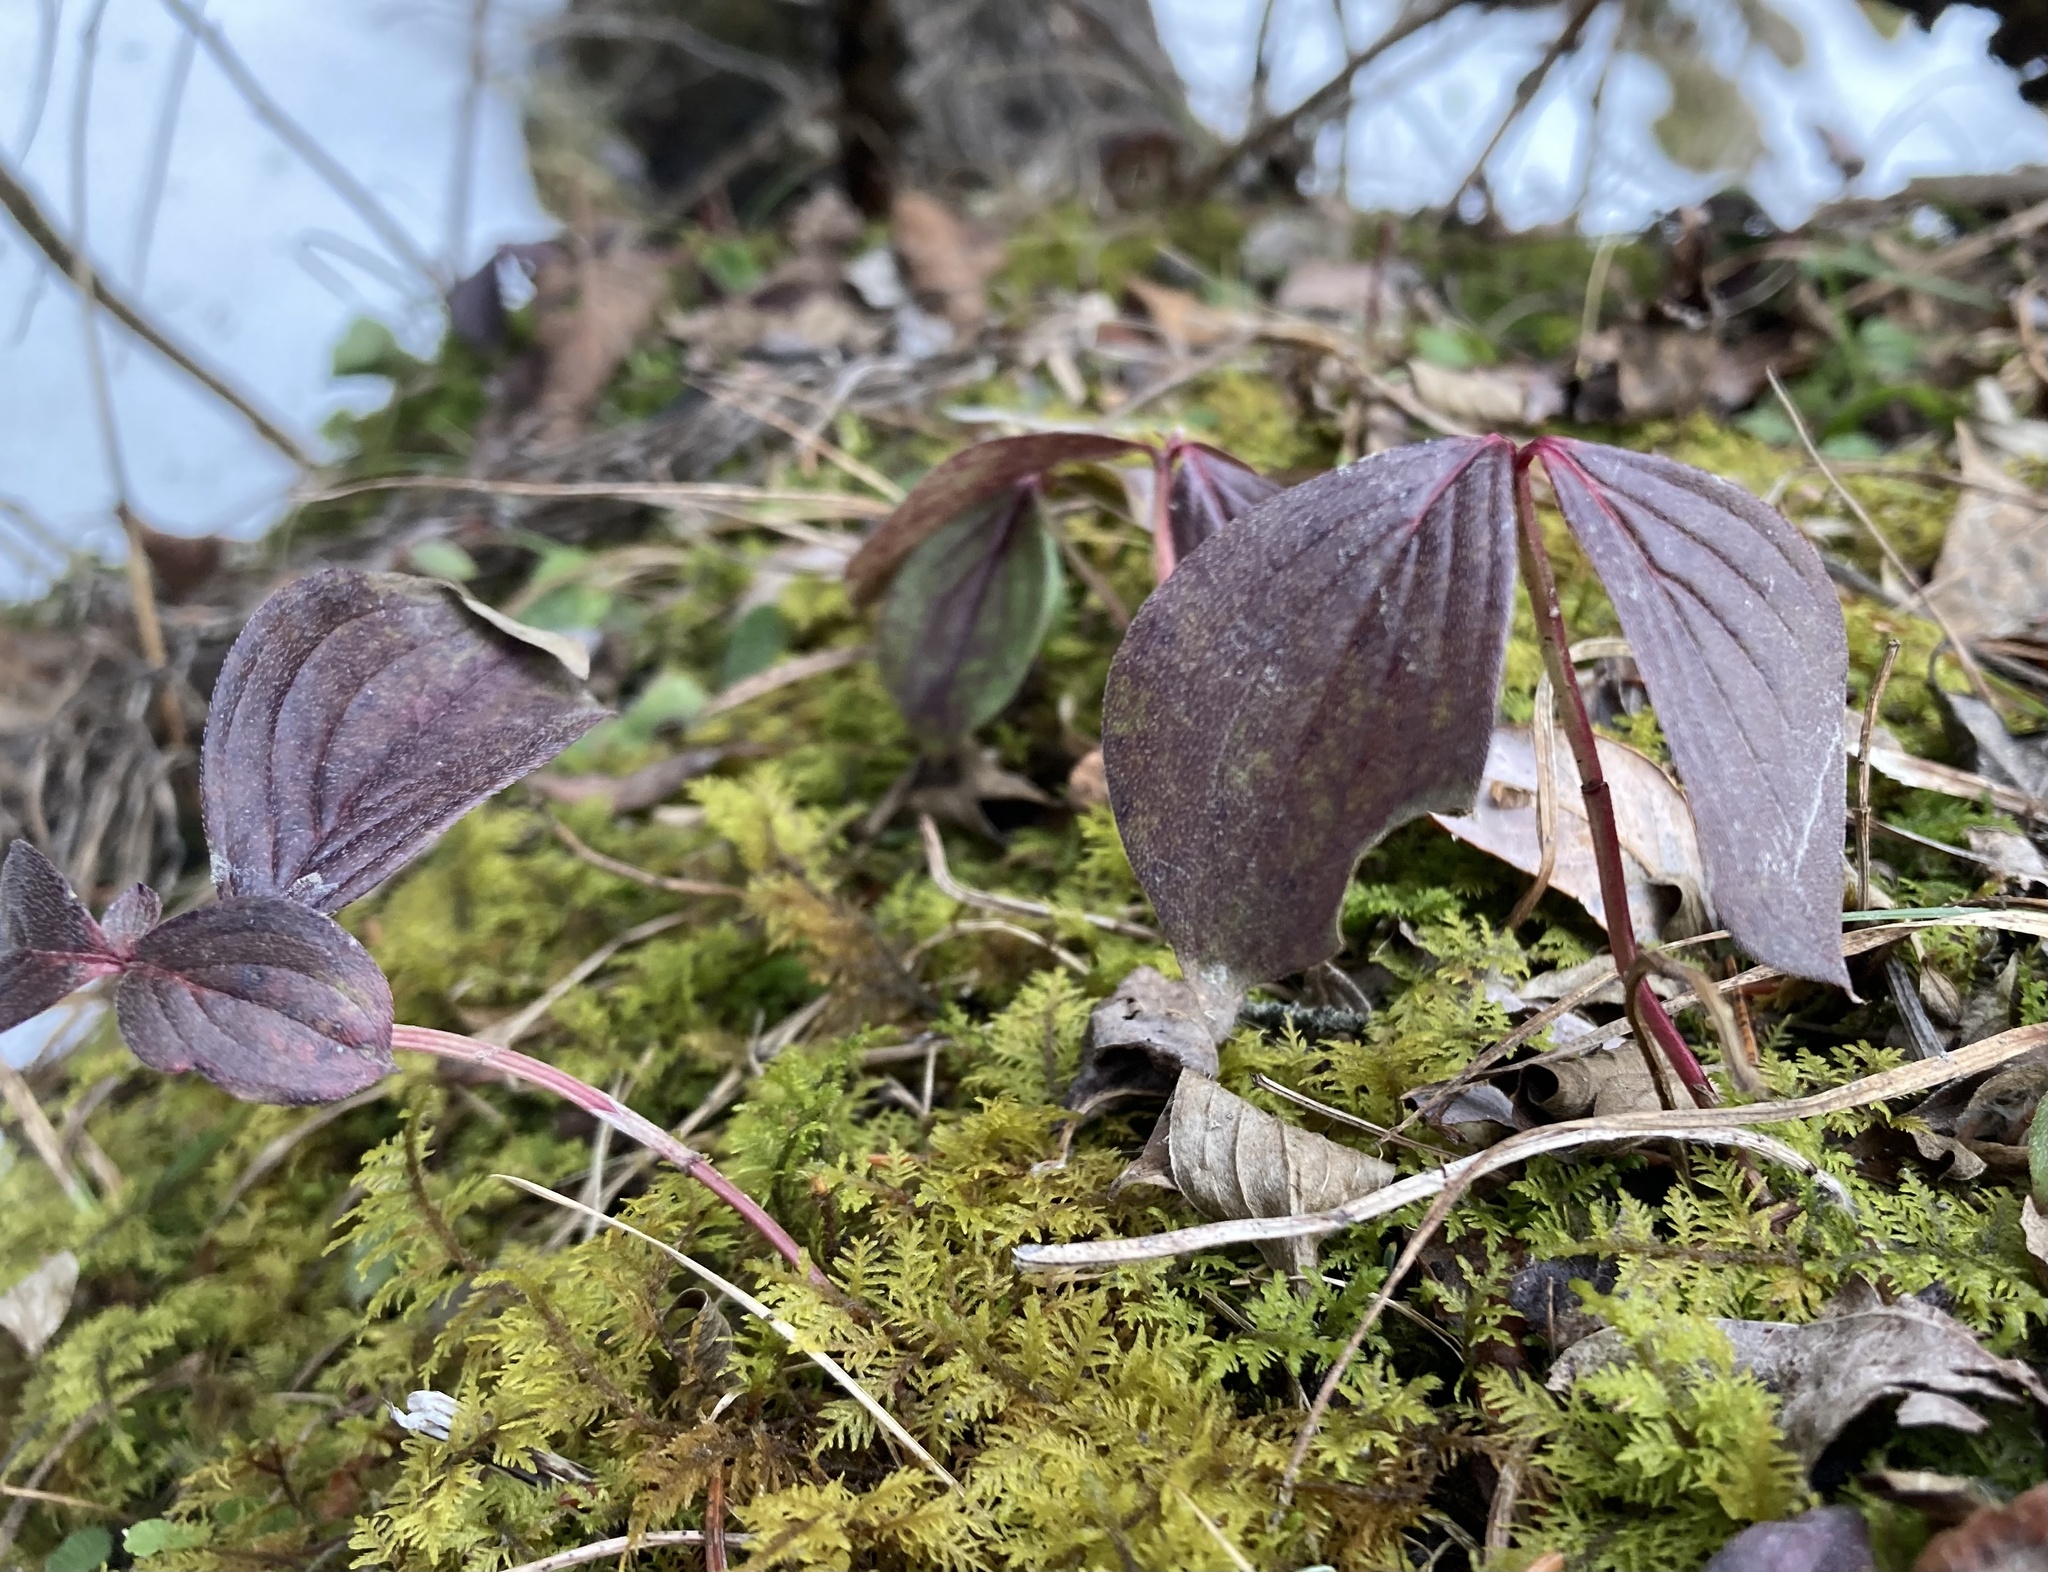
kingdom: Plantae
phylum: Tracheophyta
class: Magnoliopsida
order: Cornales
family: Cornaceae
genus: Cornus
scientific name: Cornus canadensis
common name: Creeping dogwood
